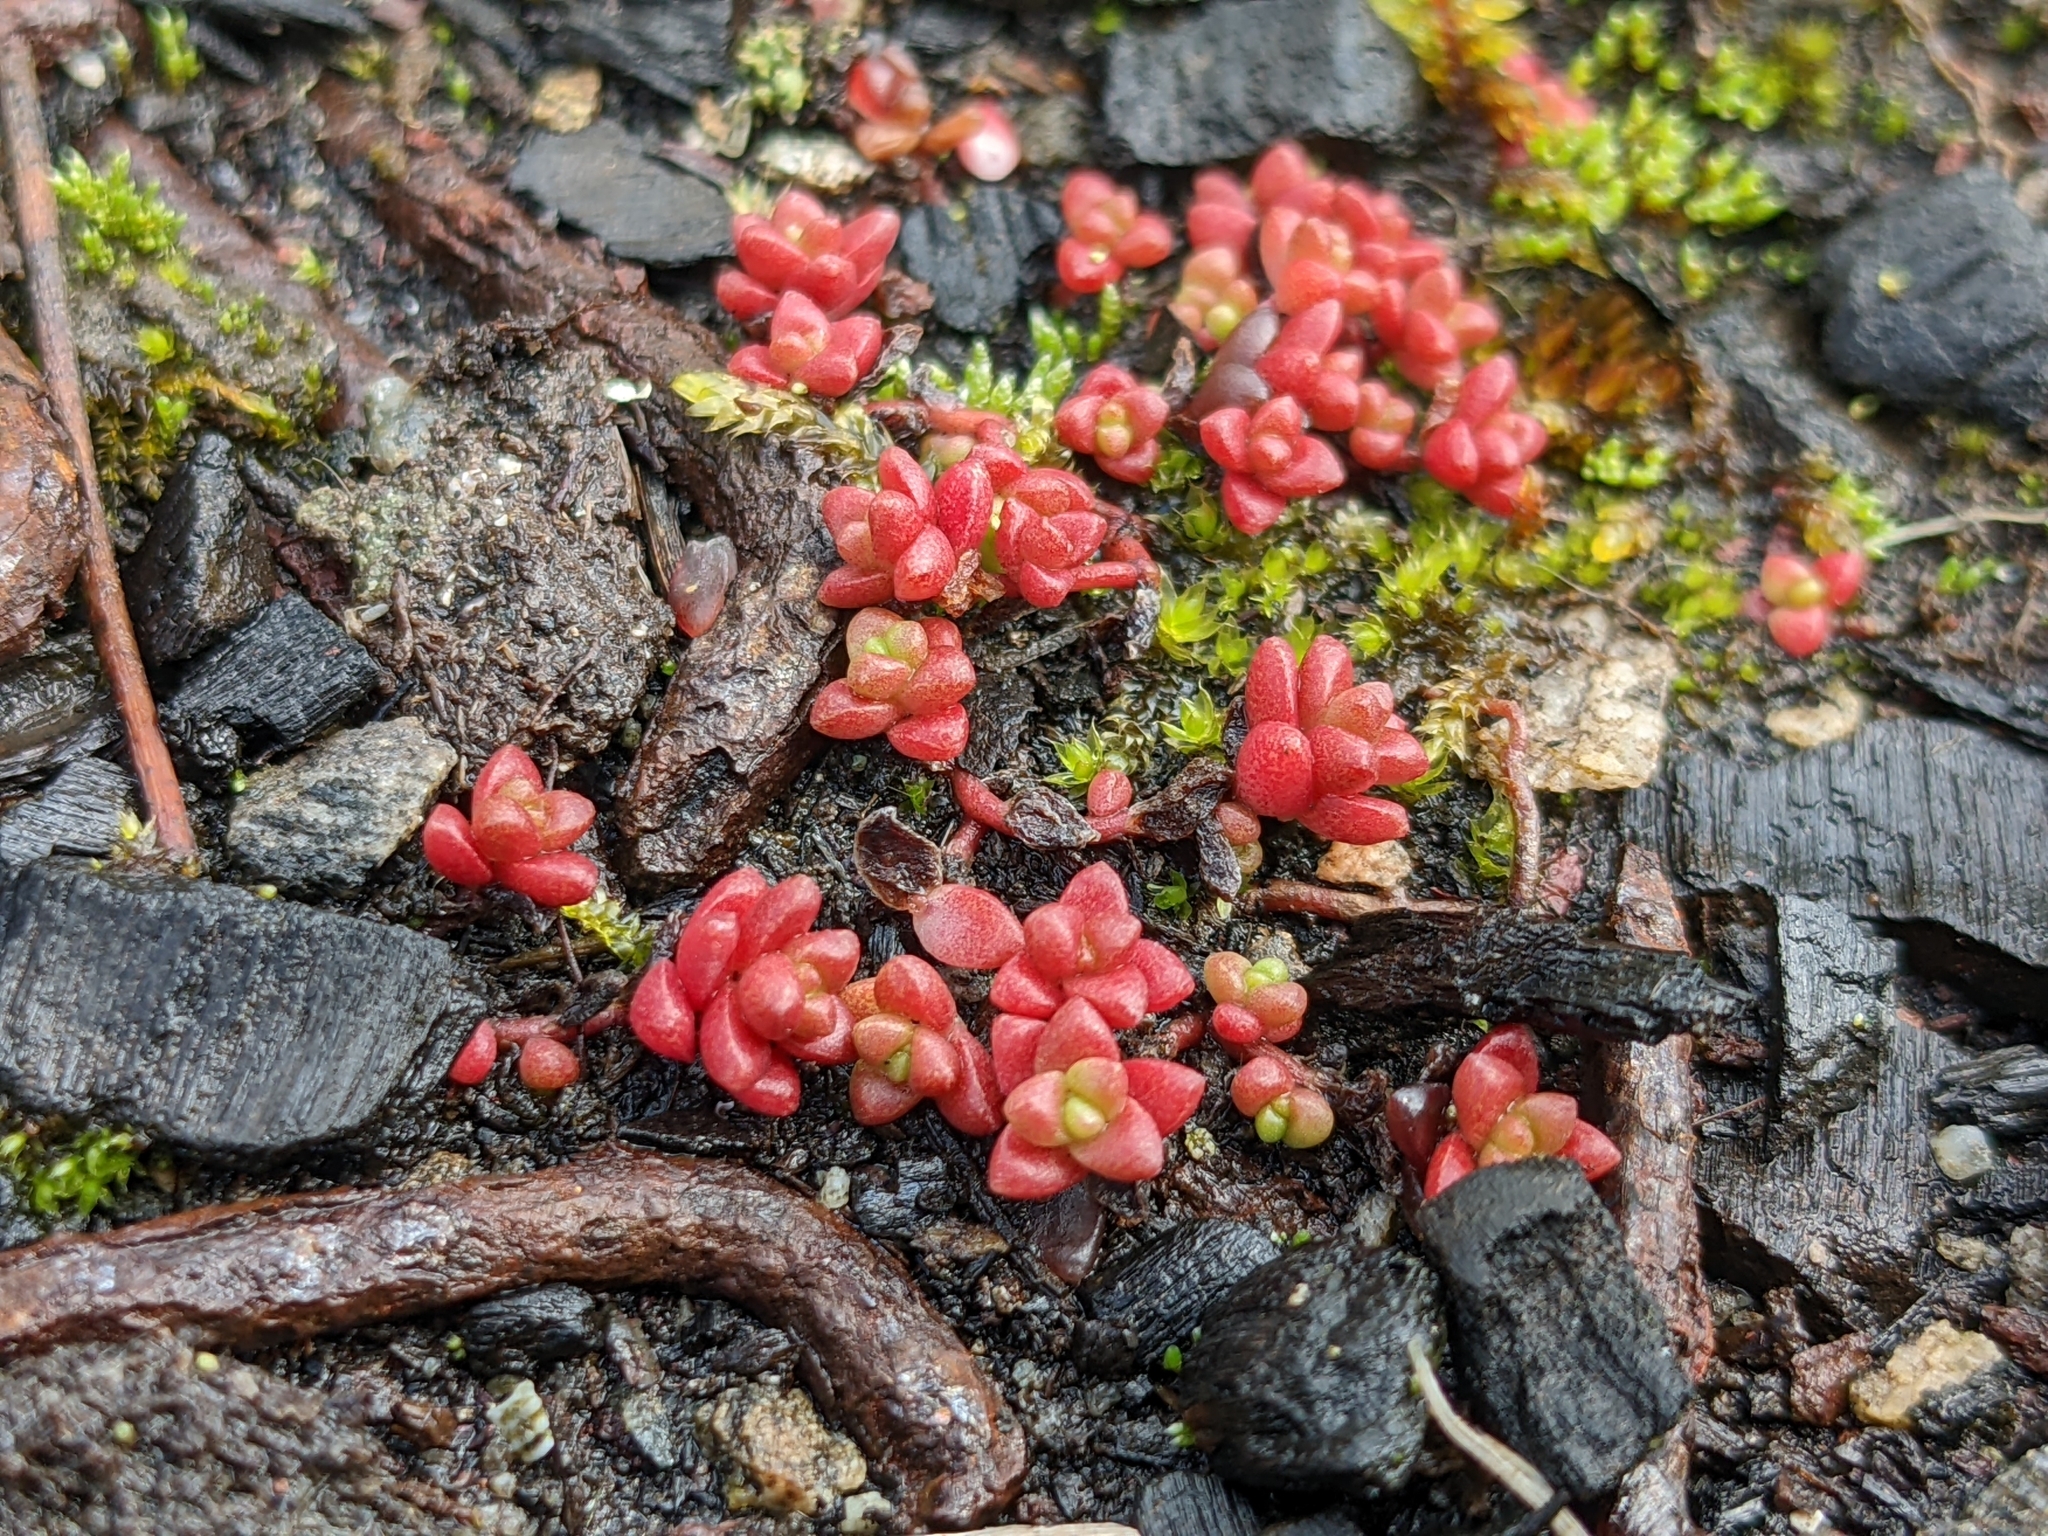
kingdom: Plantae
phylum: Tracheophyta
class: Magnoliopsida
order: Saxifragales
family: Crassulaceae
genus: Sedum
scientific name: Sedum anglicum
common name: English stonecrop
